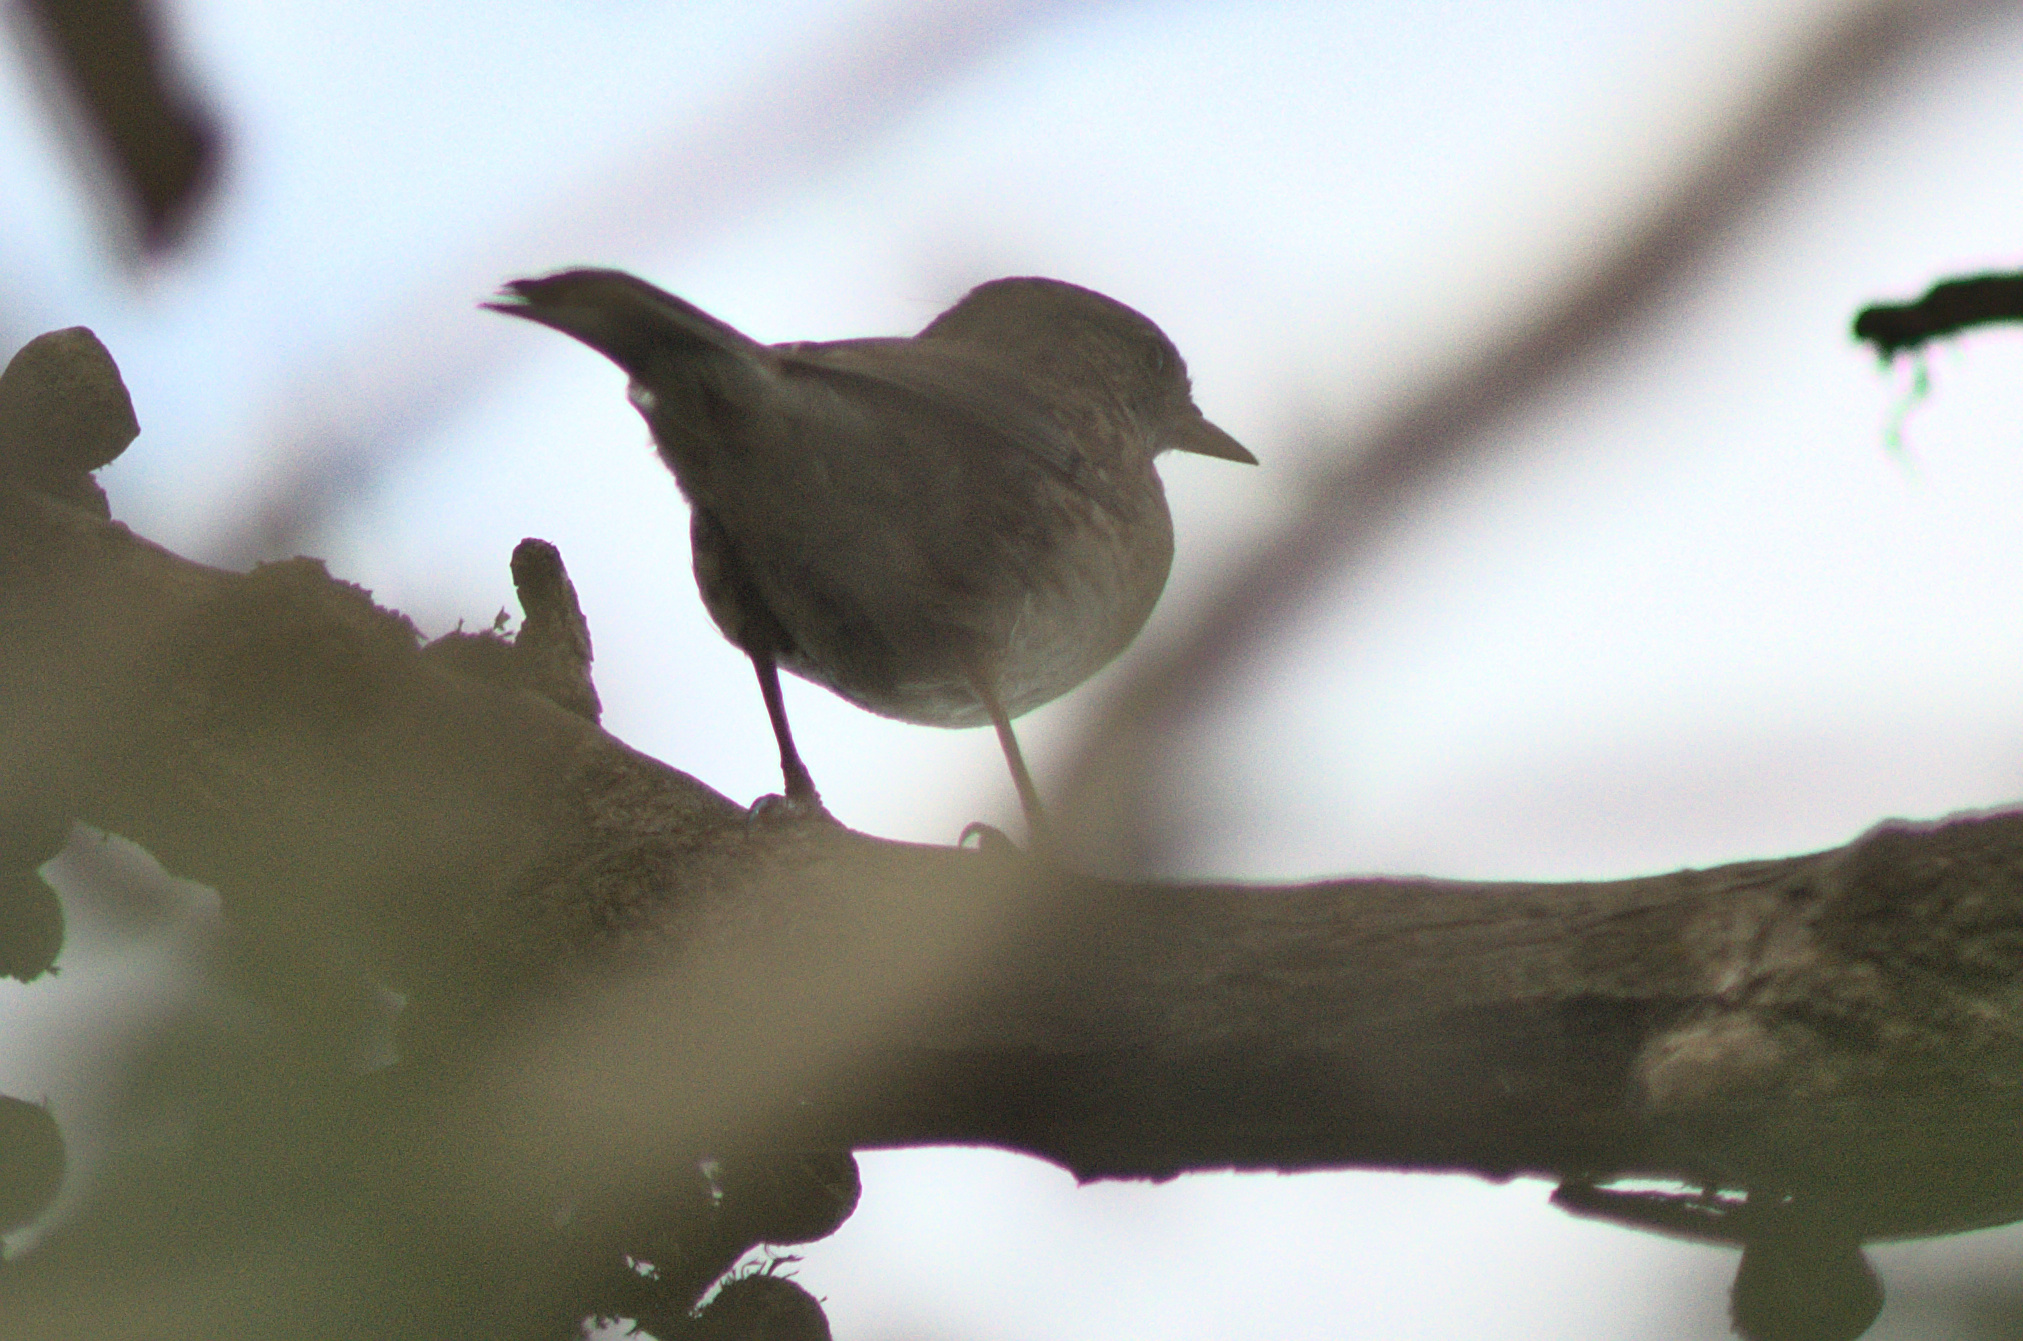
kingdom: Animalia
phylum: Chordata
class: Aves
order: Passeriformes
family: Prunellidae
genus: Prunella
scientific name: Prunella modularis
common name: Dunnock
